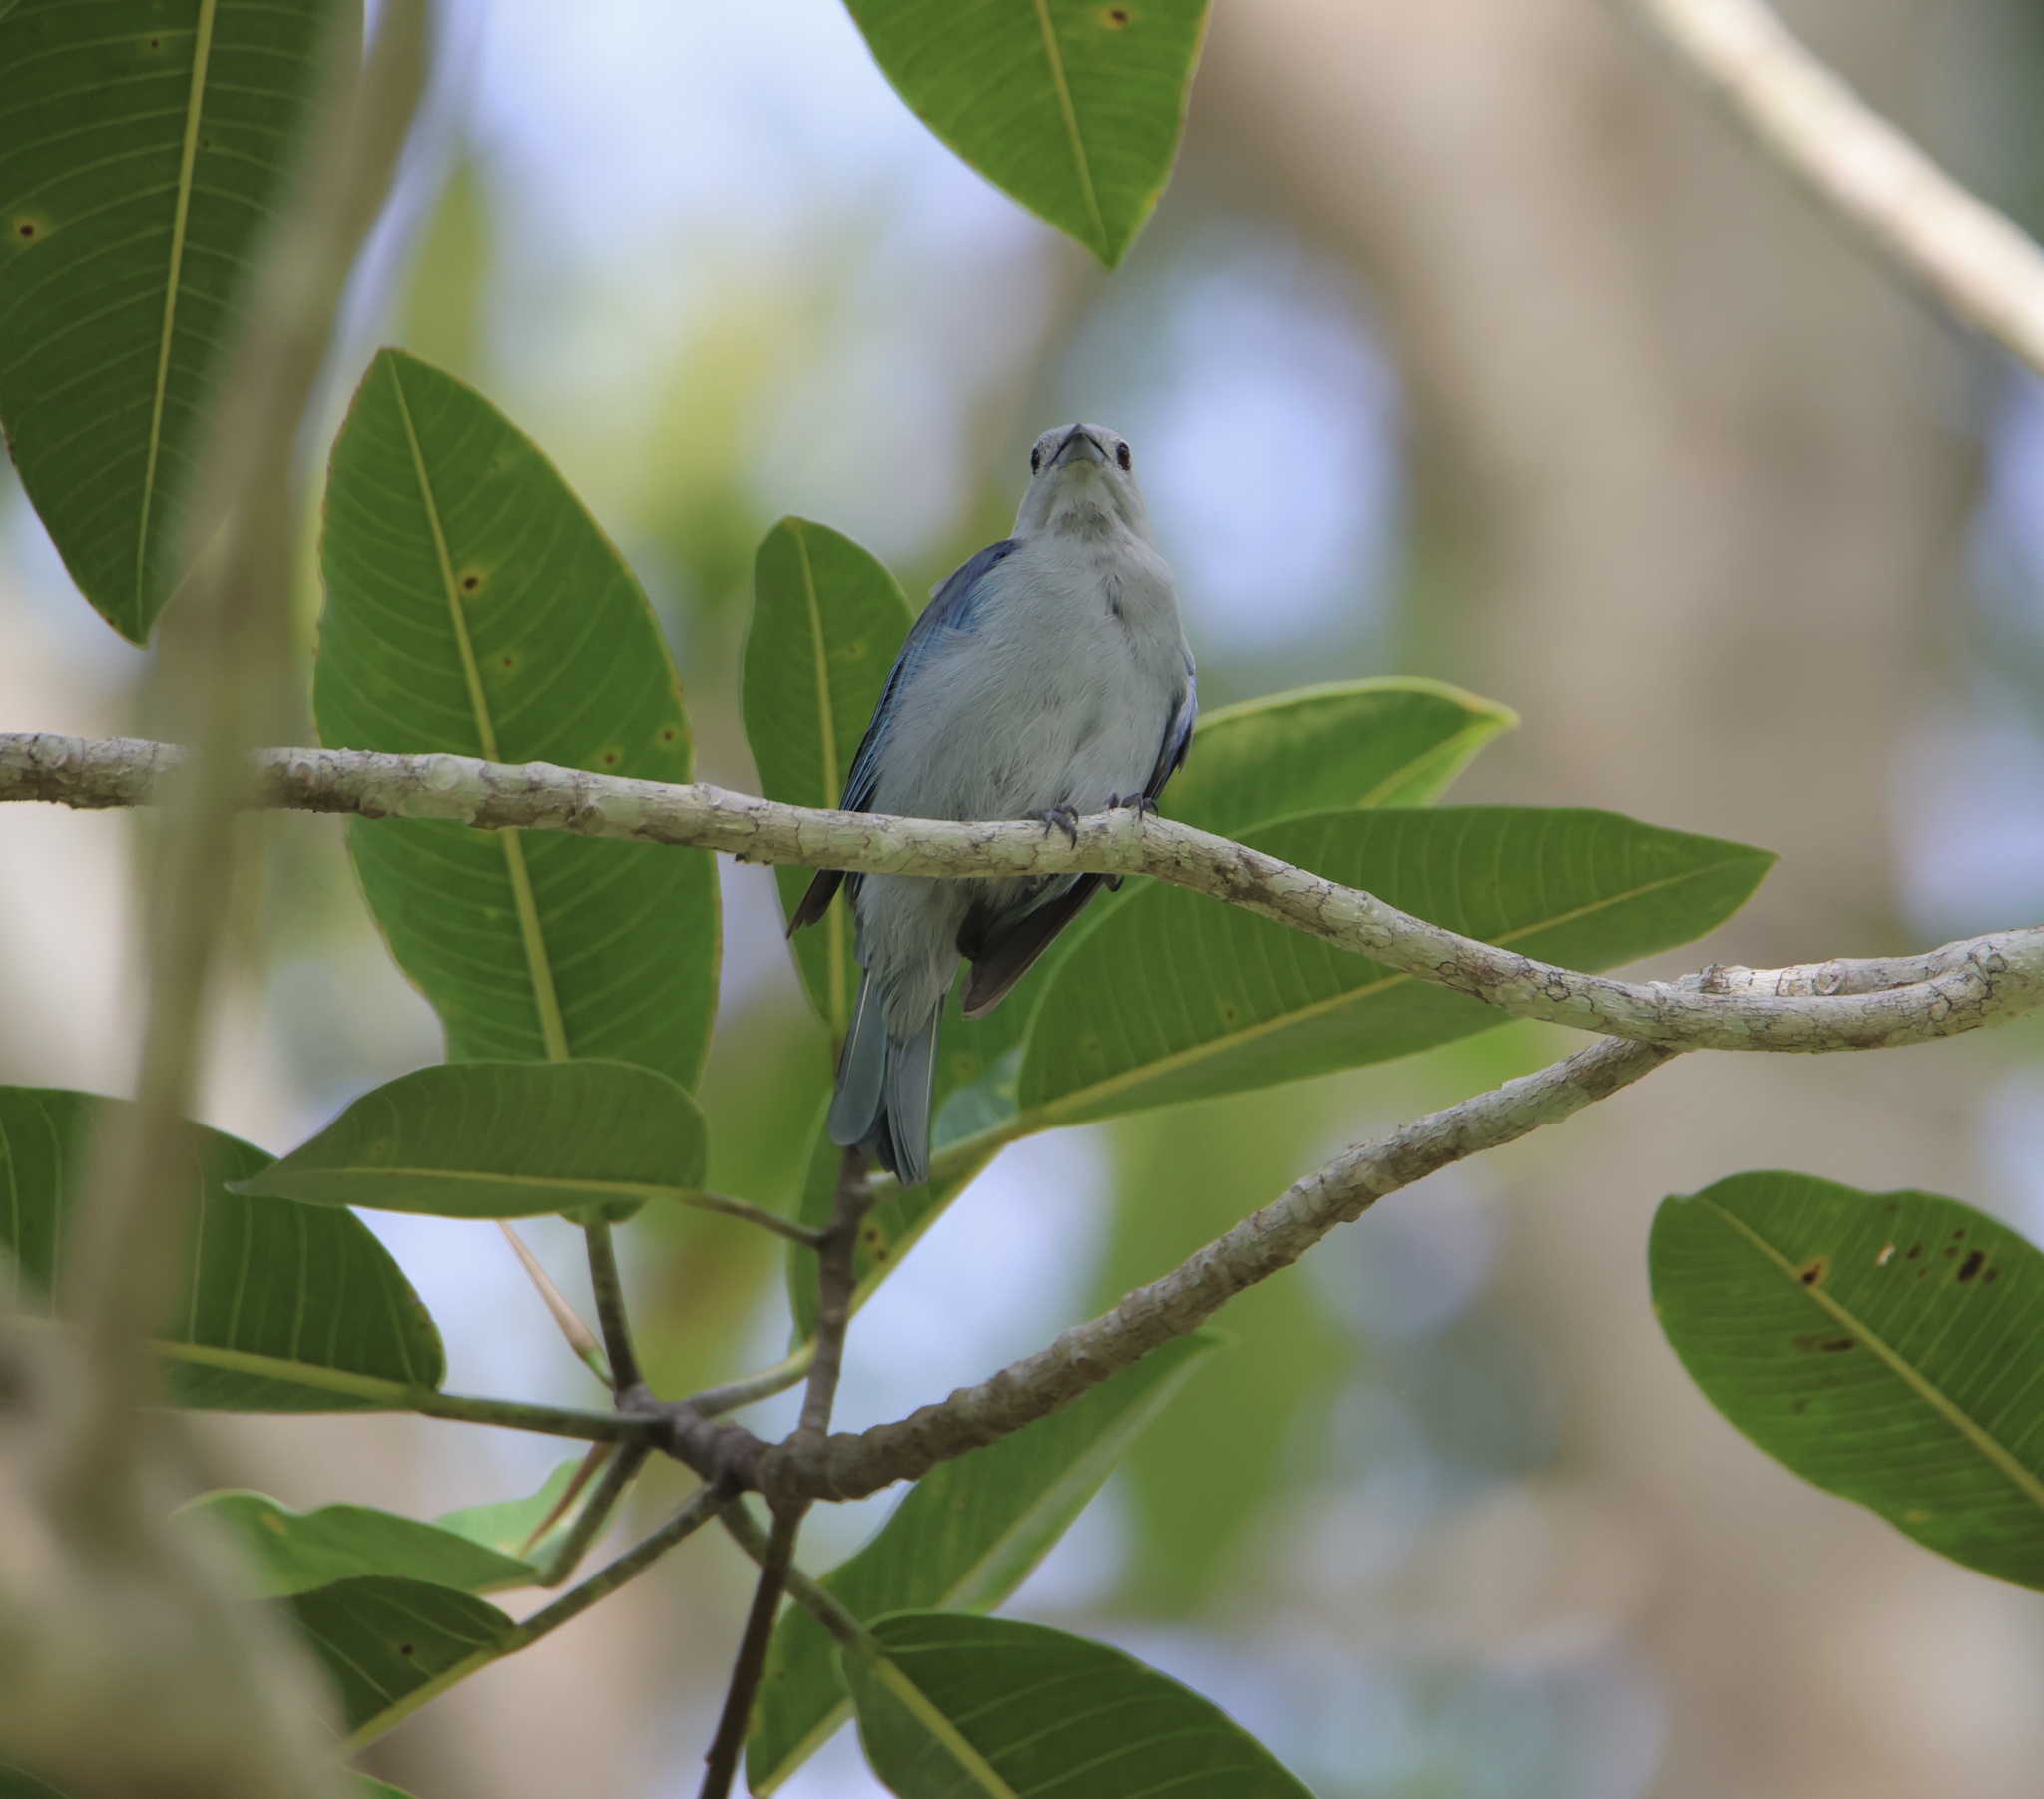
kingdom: Animalia
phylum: Chordata
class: Aves
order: Passeriformes
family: Thraupidae
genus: Thraupis
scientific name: Thraupis episcopus
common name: Blue-grey tanager
